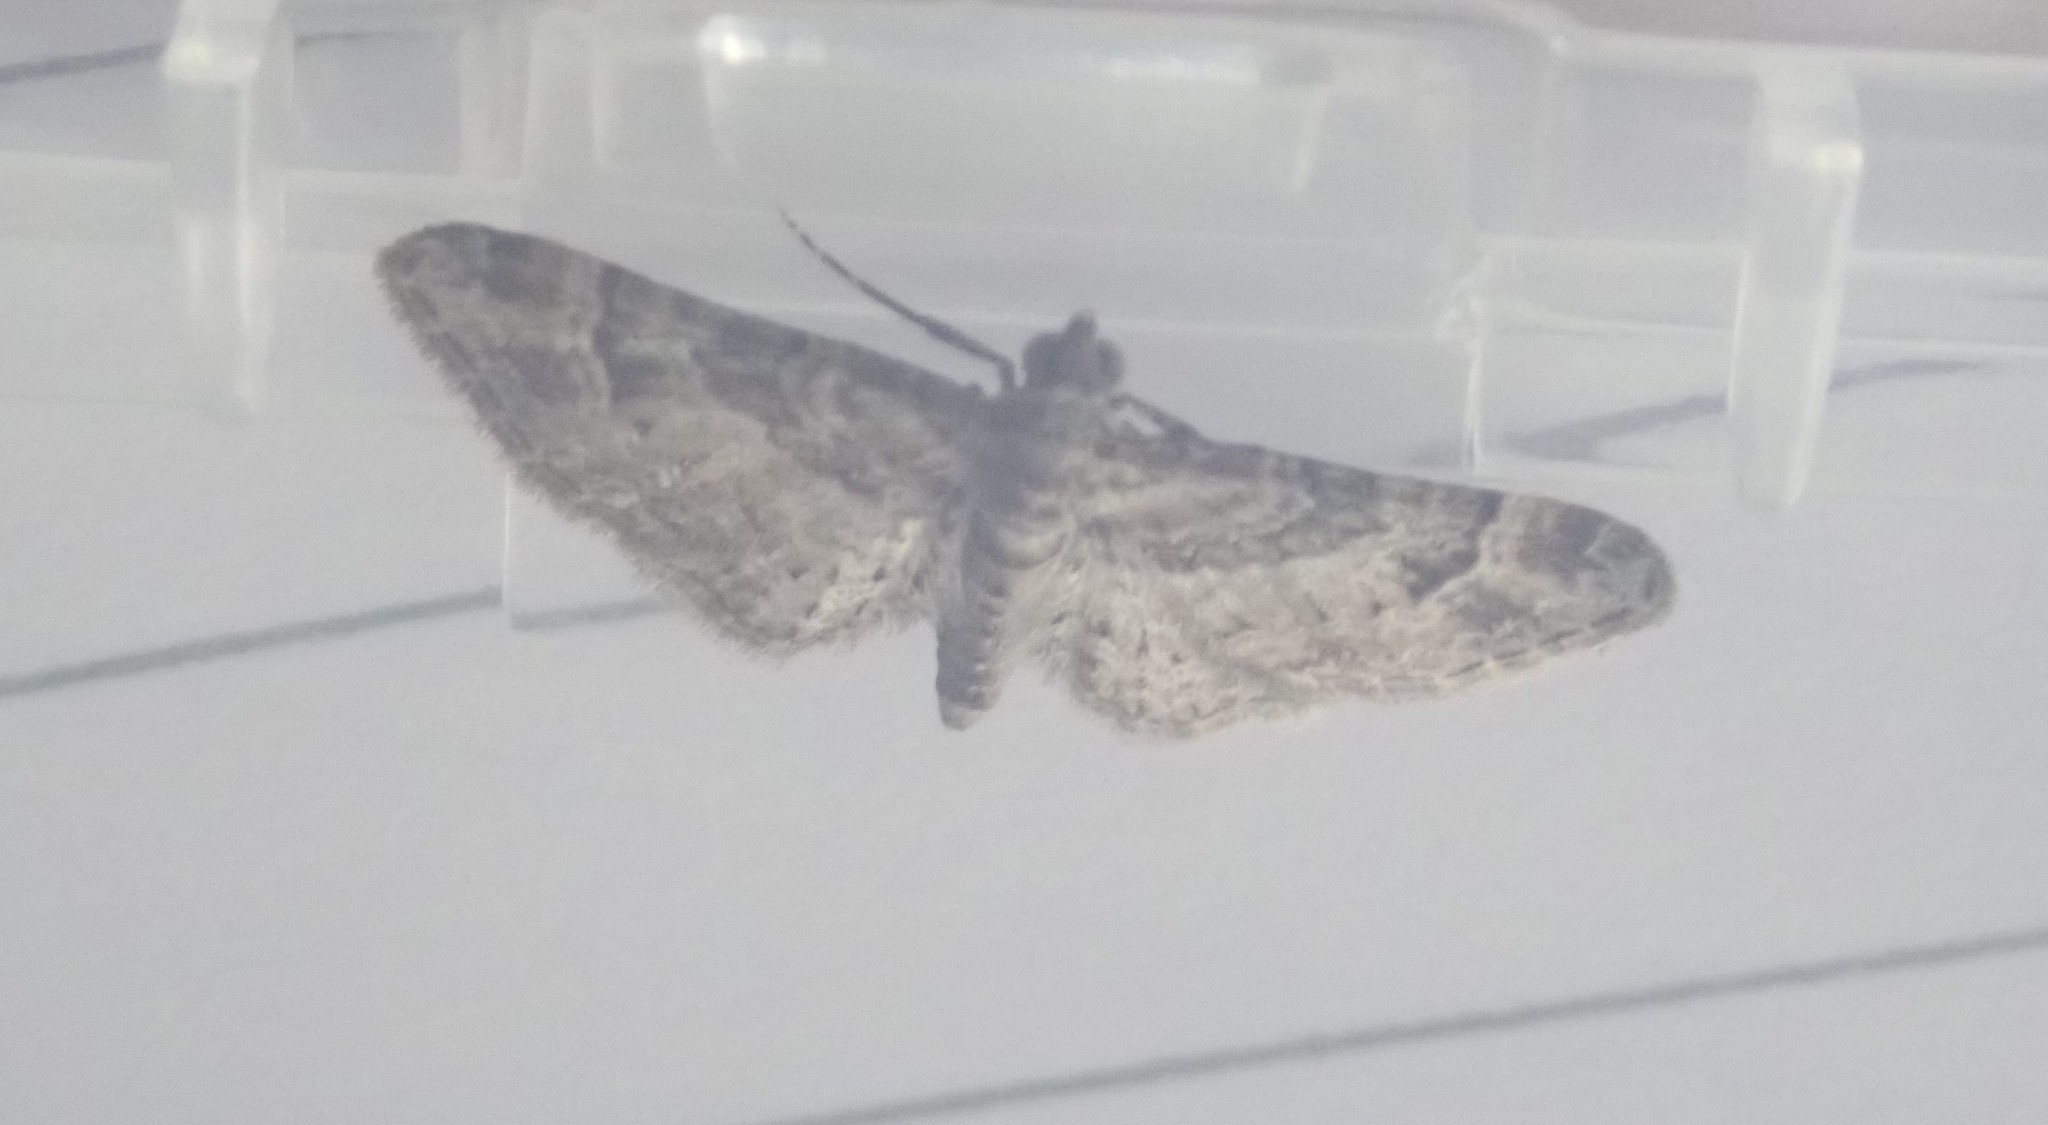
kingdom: Animalia
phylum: Arthropoda
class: Insecta
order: Lepidoptera
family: Geometridae
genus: Gymnoscelis
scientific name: Gymnoscelis rufifasciata
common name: Double-striped pug
